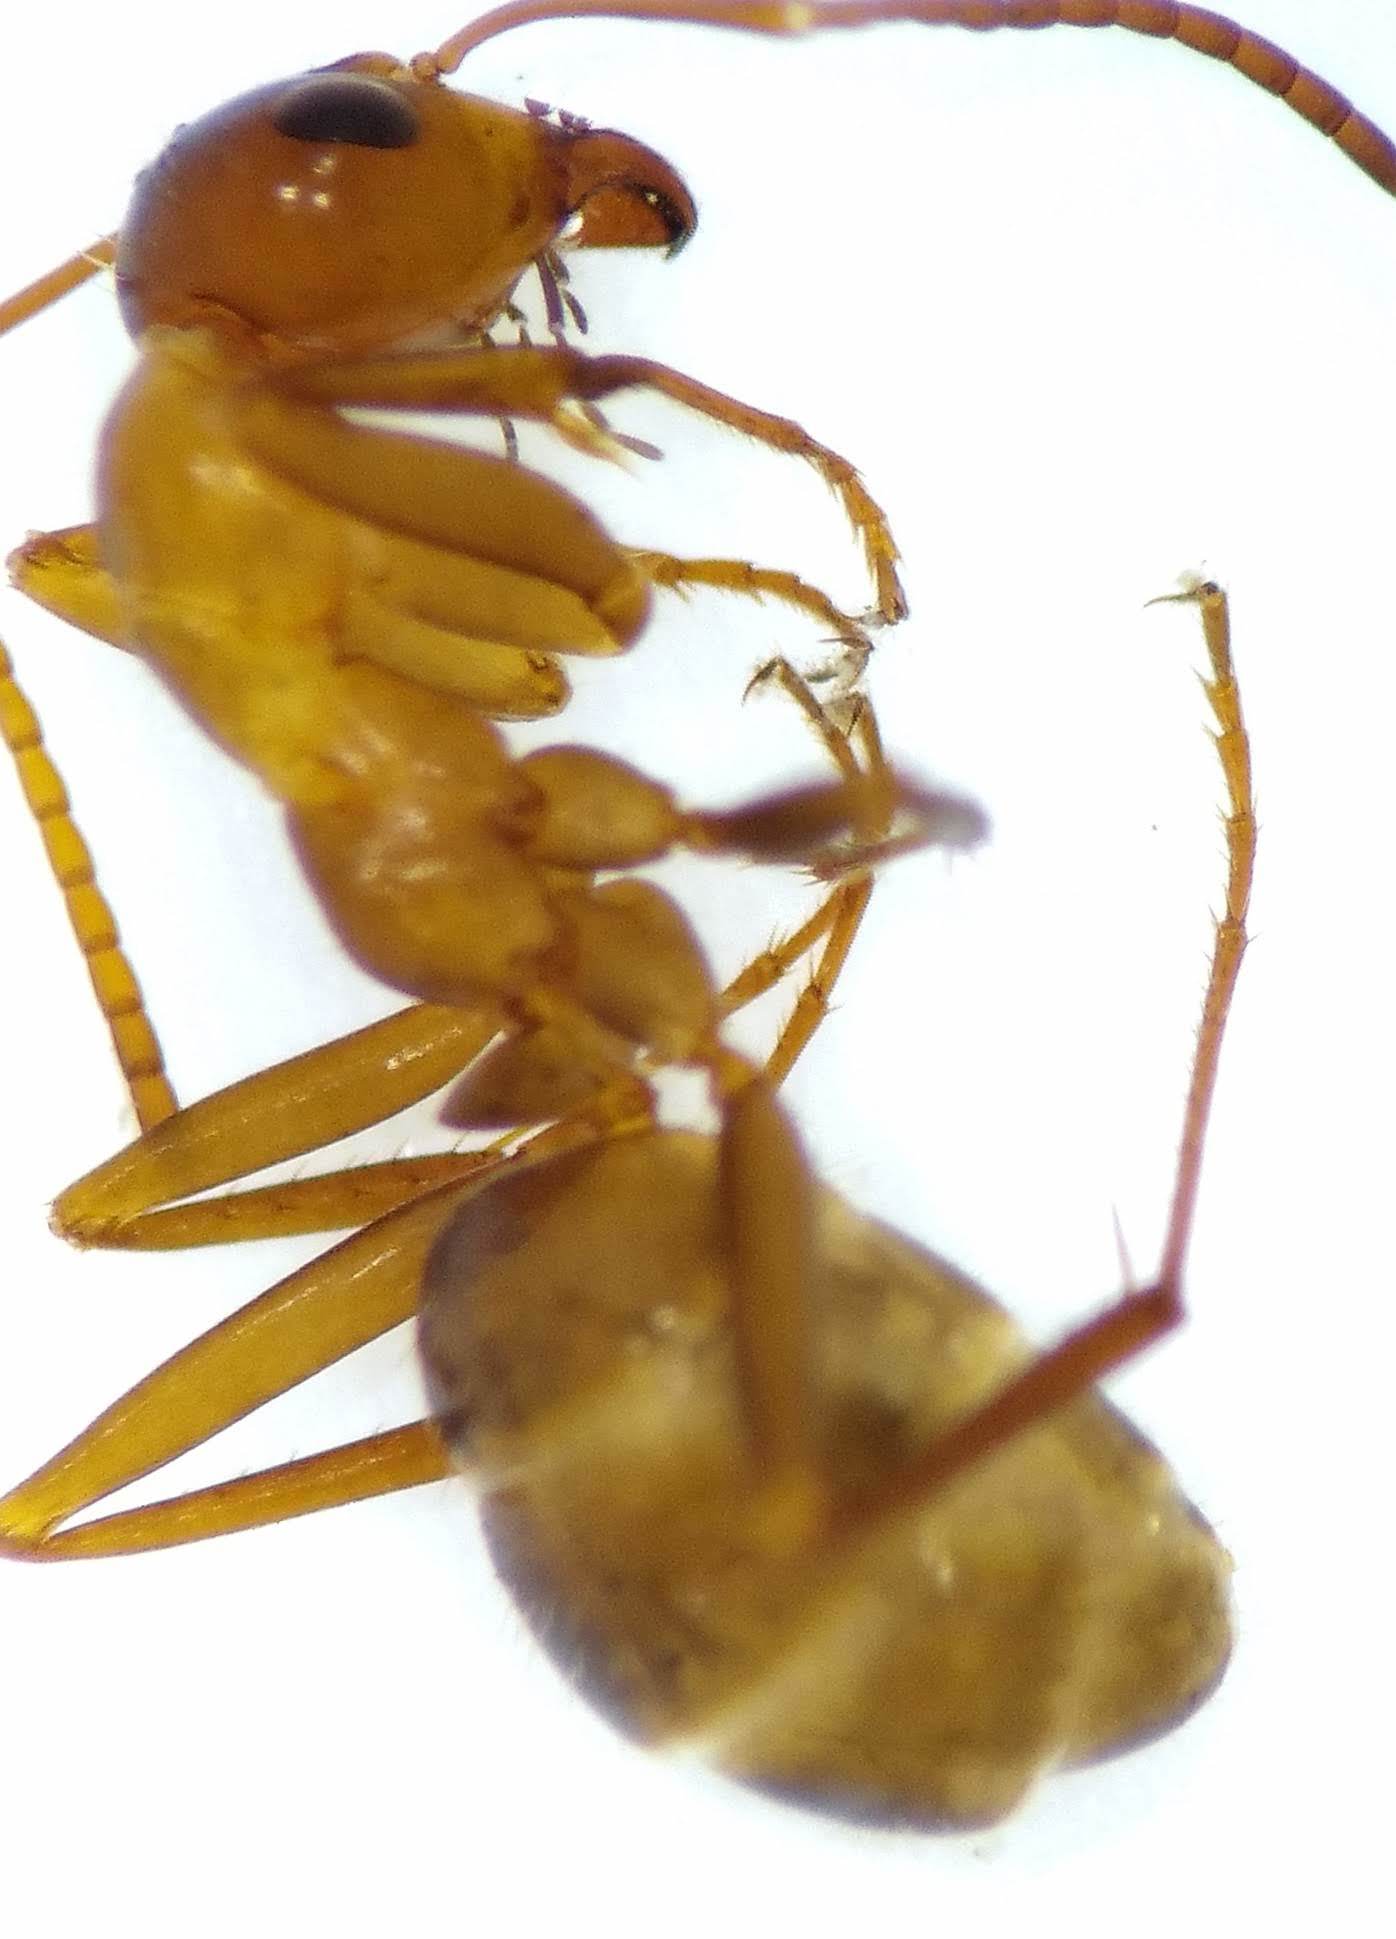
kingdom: Animalia
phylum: Arthropoda
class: Insecta
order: Hymenoptera
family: Formicidae
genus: Formica
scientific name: Formica pallidefulva
